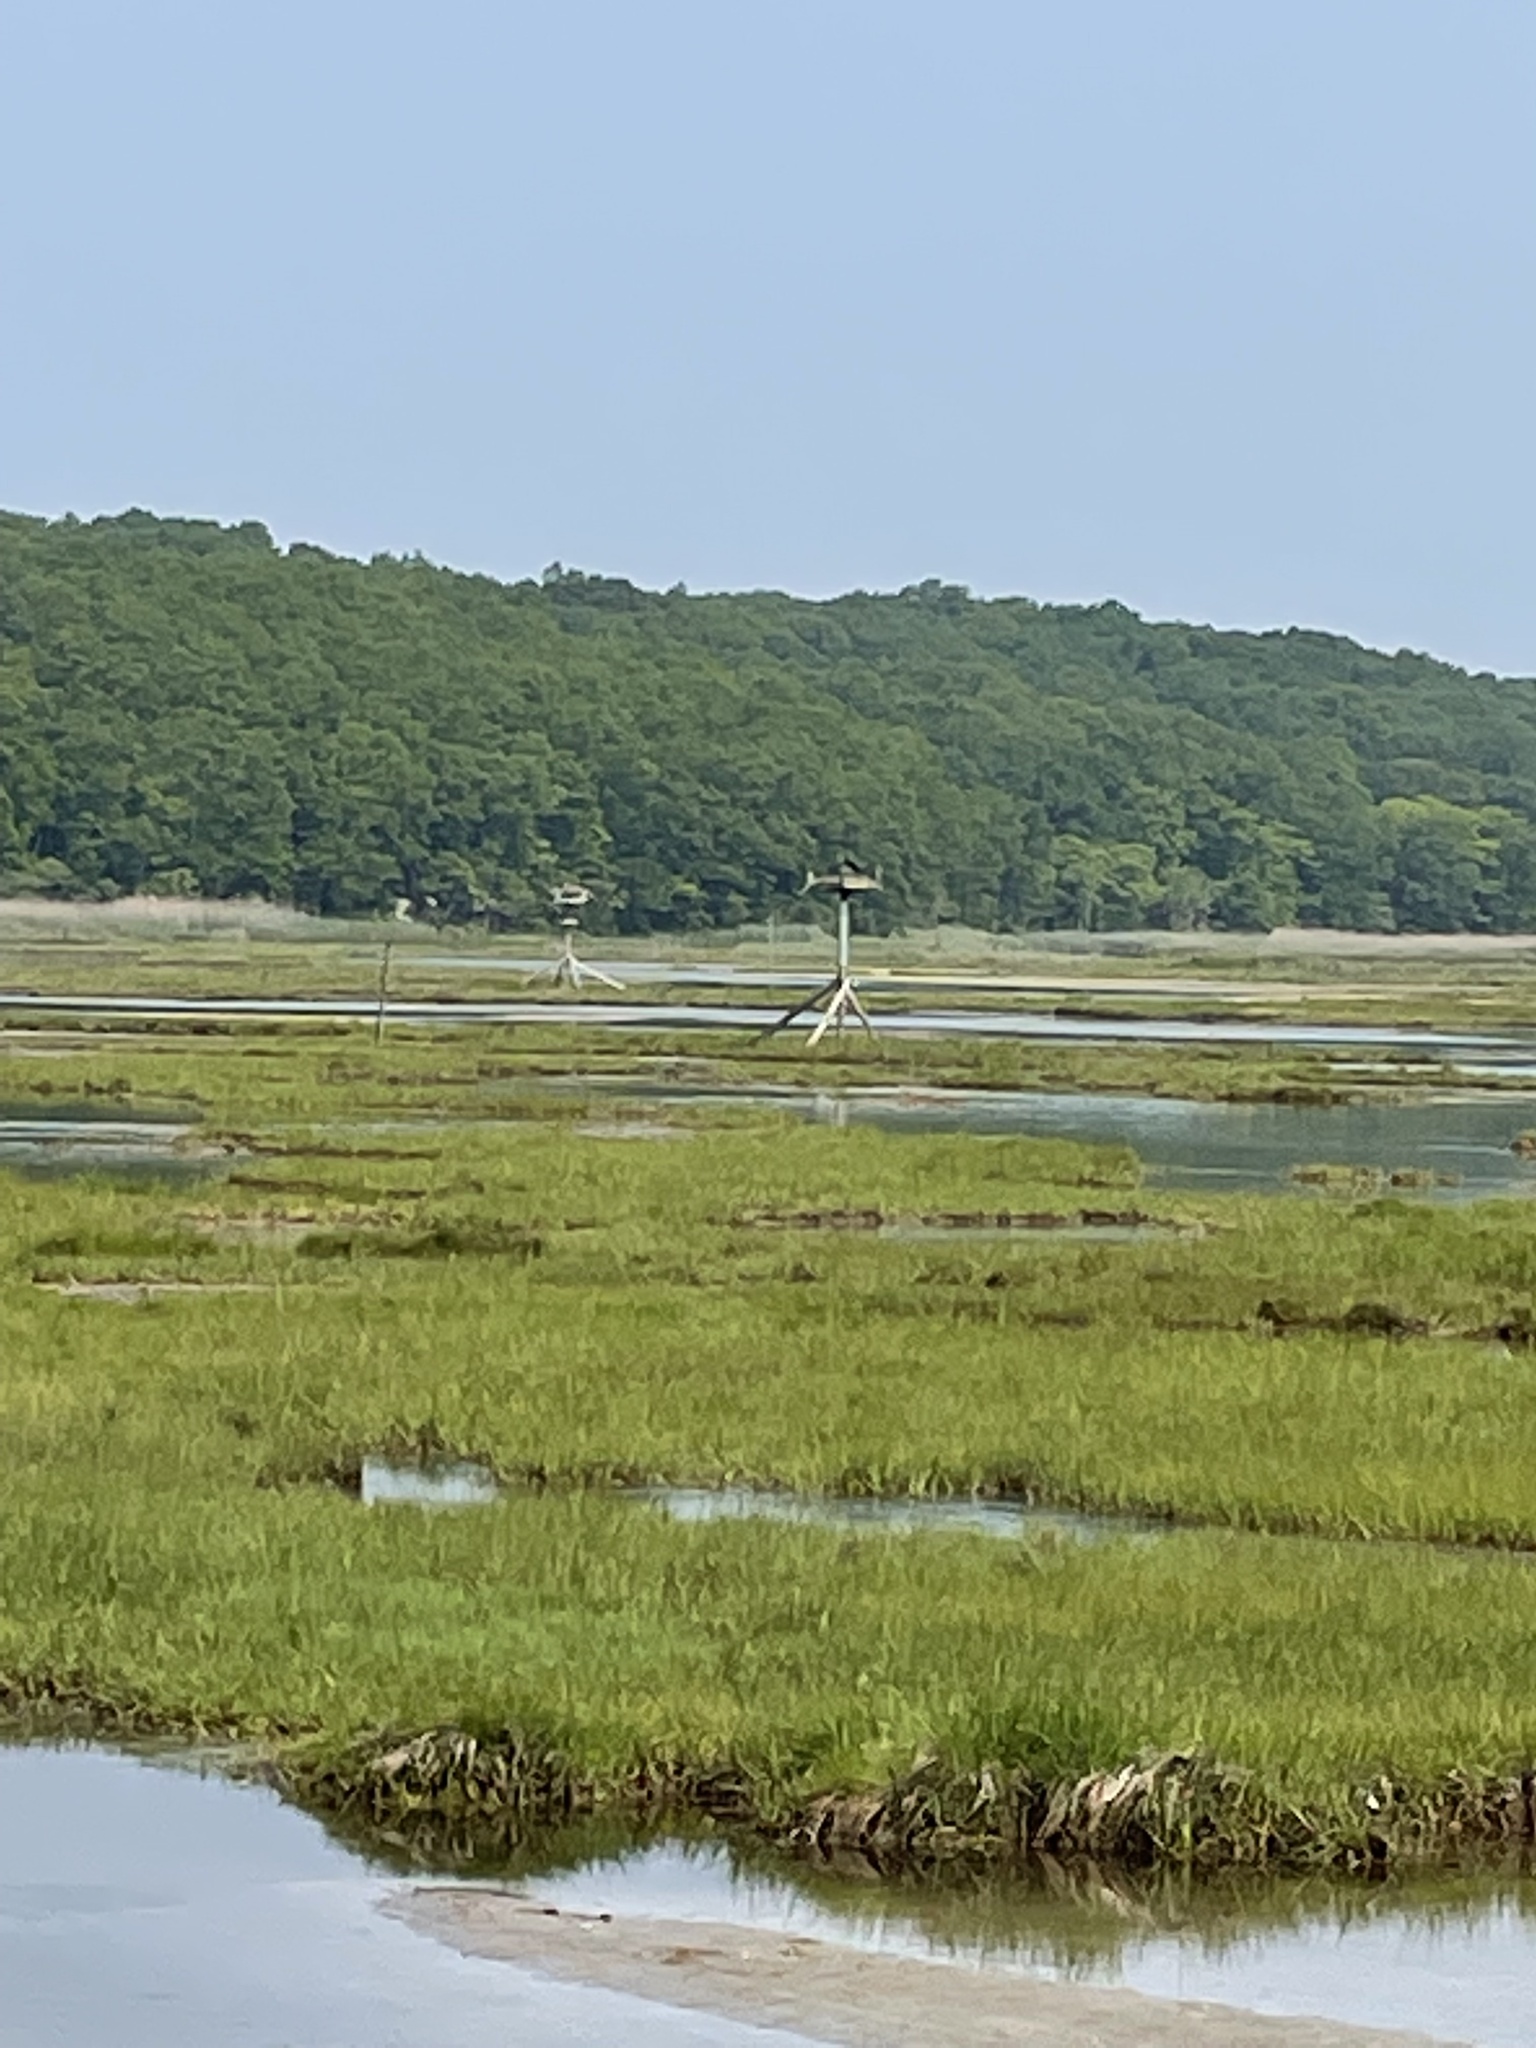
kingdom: Animalia
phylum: Chordata
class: Aves
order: Accipitriformes
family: Pandionidae
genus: Pandion
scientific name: Pandion haliaetus
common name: Osprey
